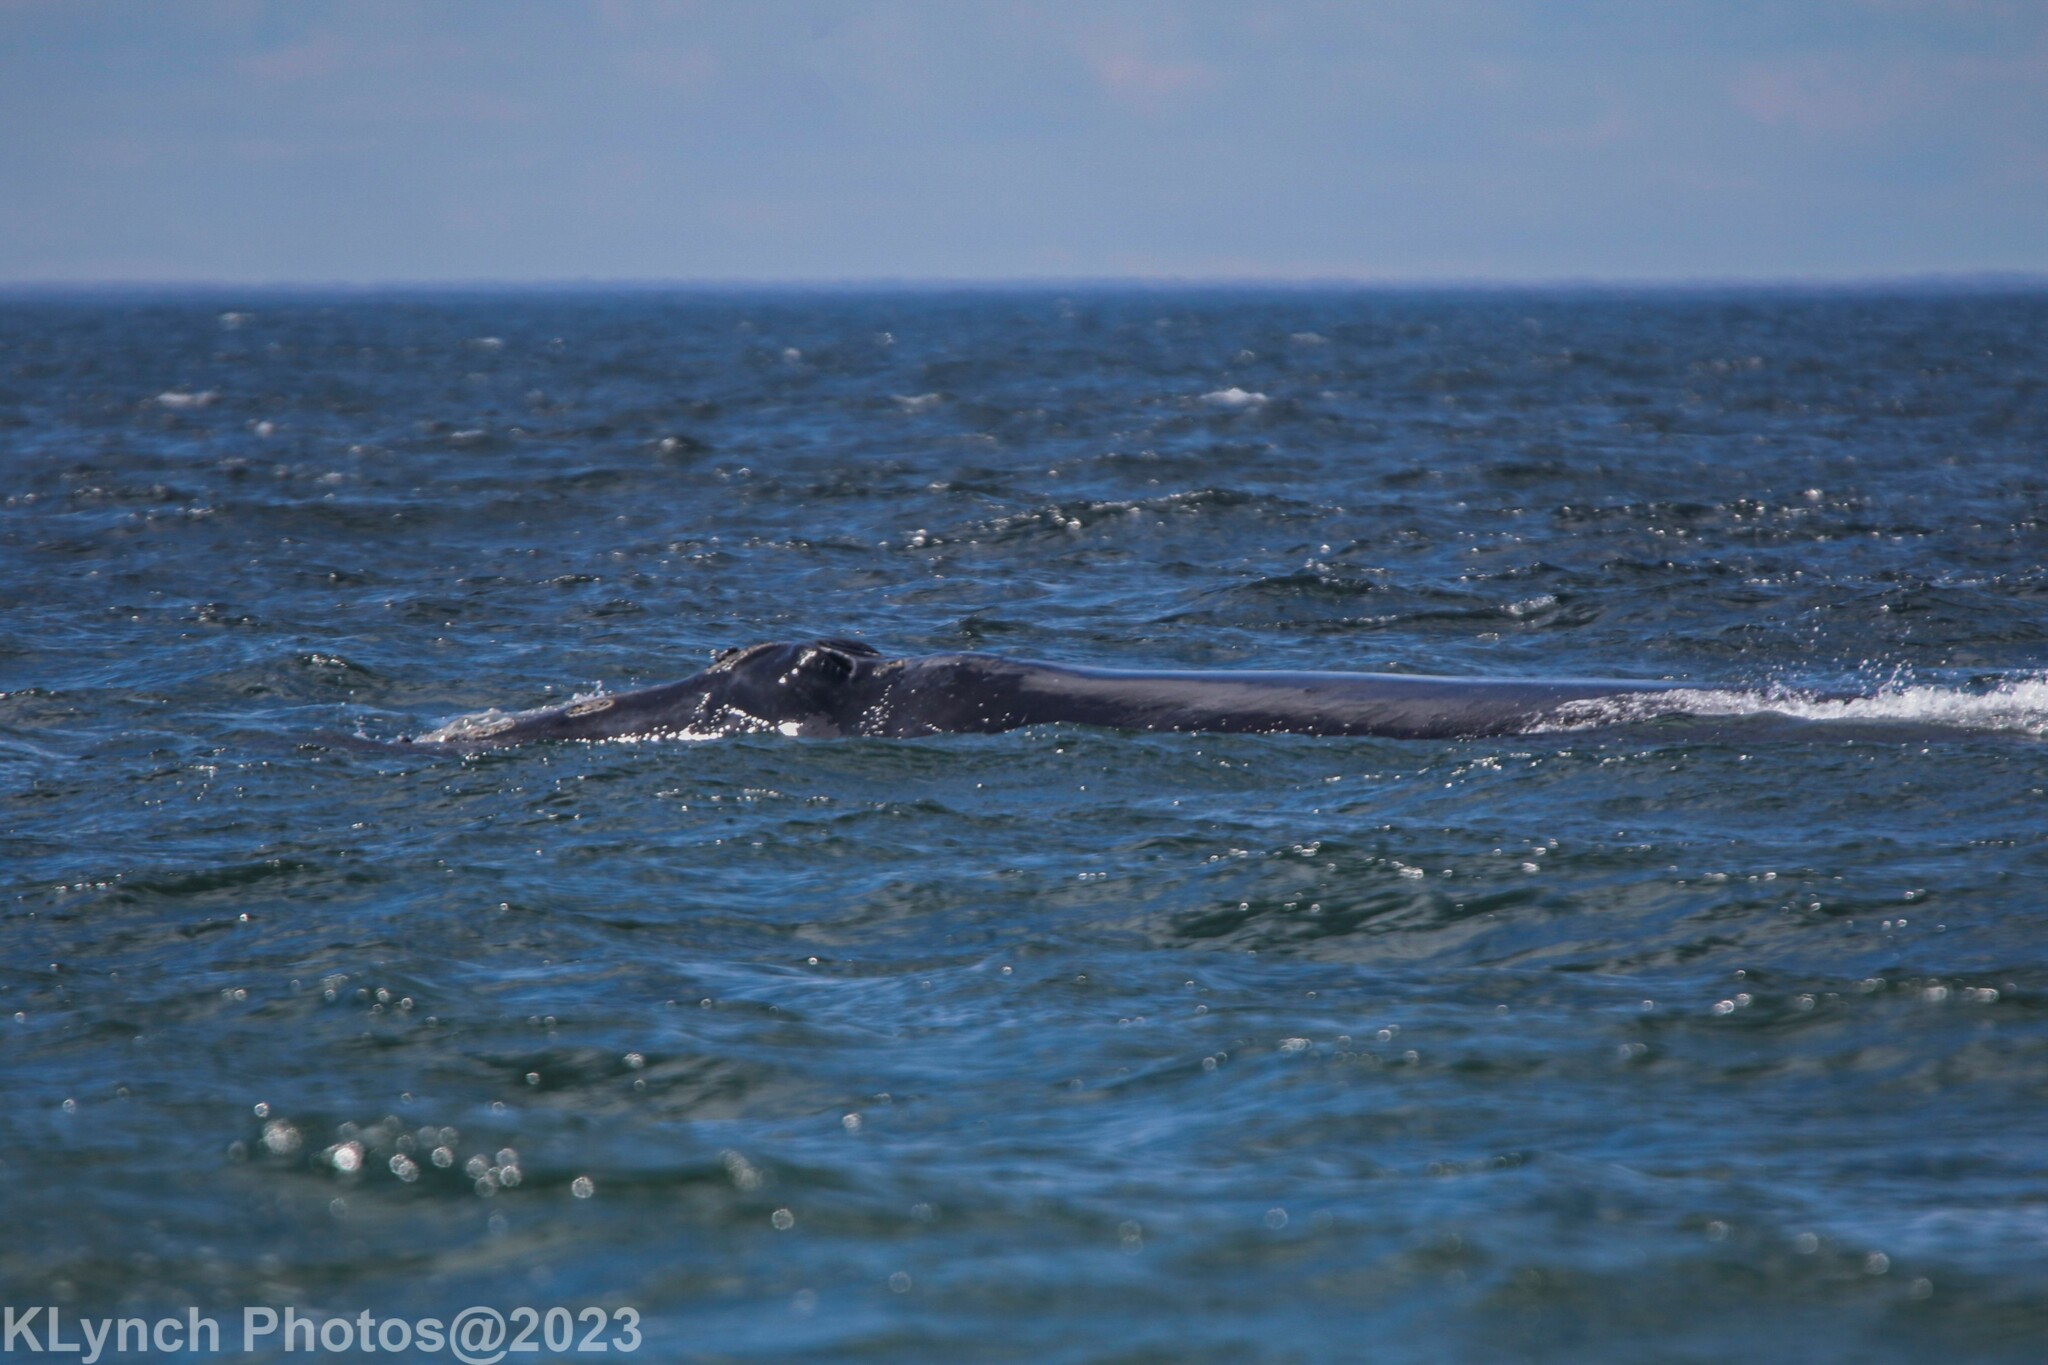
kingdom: Animalia
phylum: Chordata
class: Mammalia
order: Cetacea
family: Balaenidae
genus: Eubalaena
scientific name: Eubalaena glacialis
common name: North atlantic right whale
